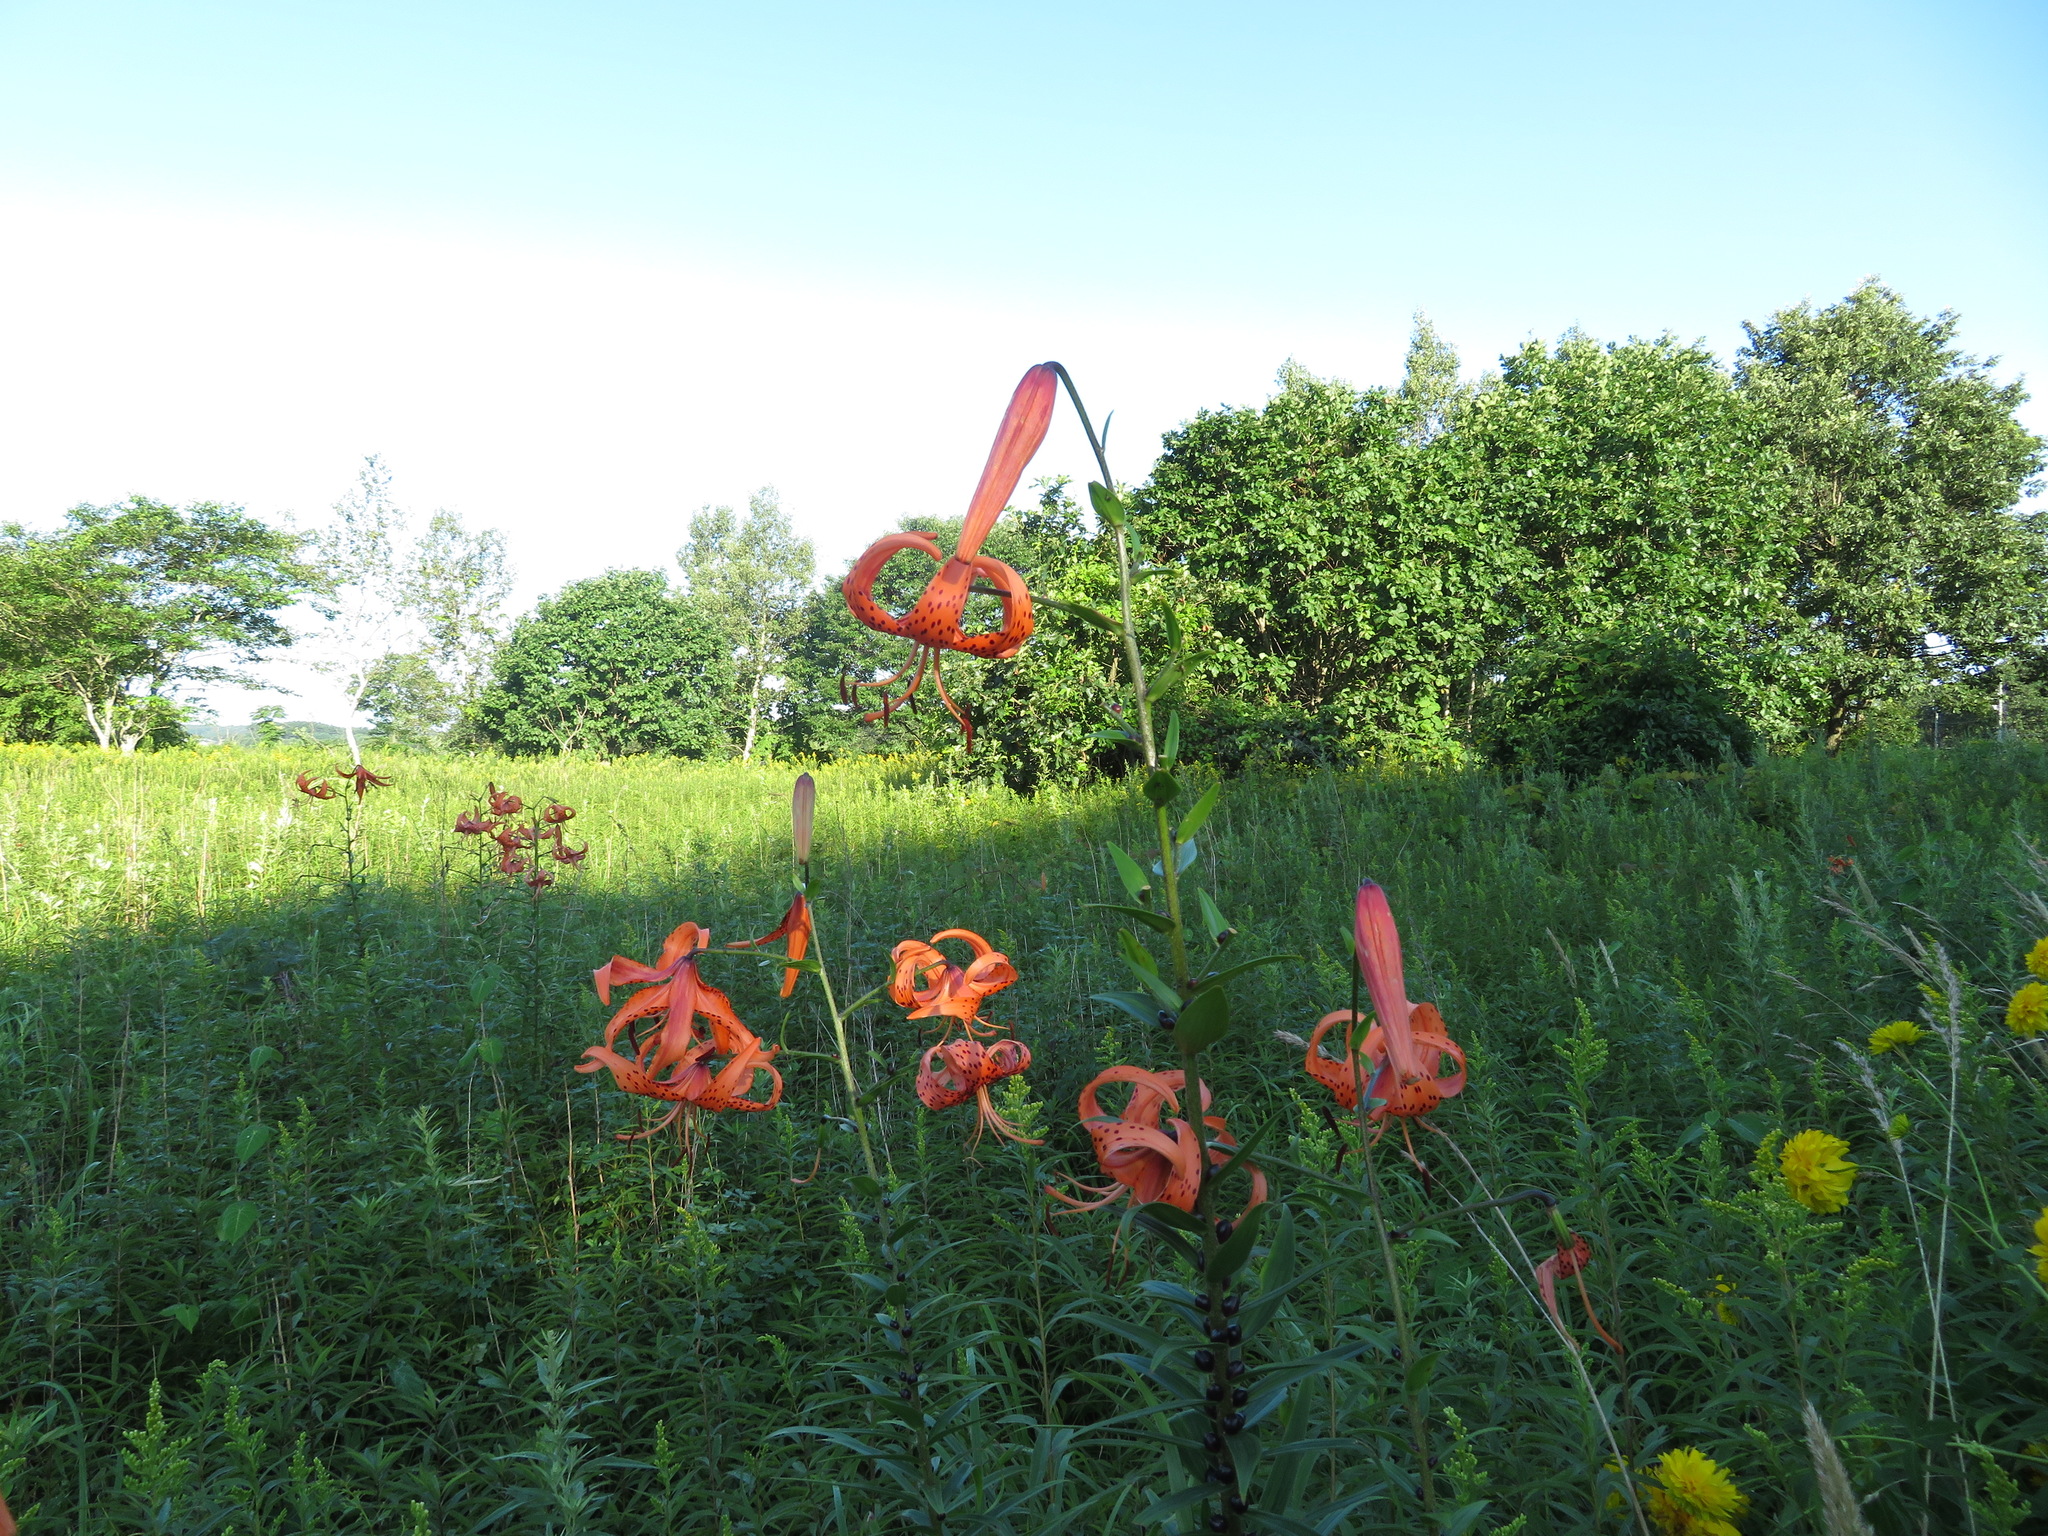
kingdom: Plantae
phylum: Tracheophyta
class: Liliopsida
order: Liliales
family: Liliaceae
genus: Lilium
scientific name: Lilium lancifolium
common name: Tiger lily
